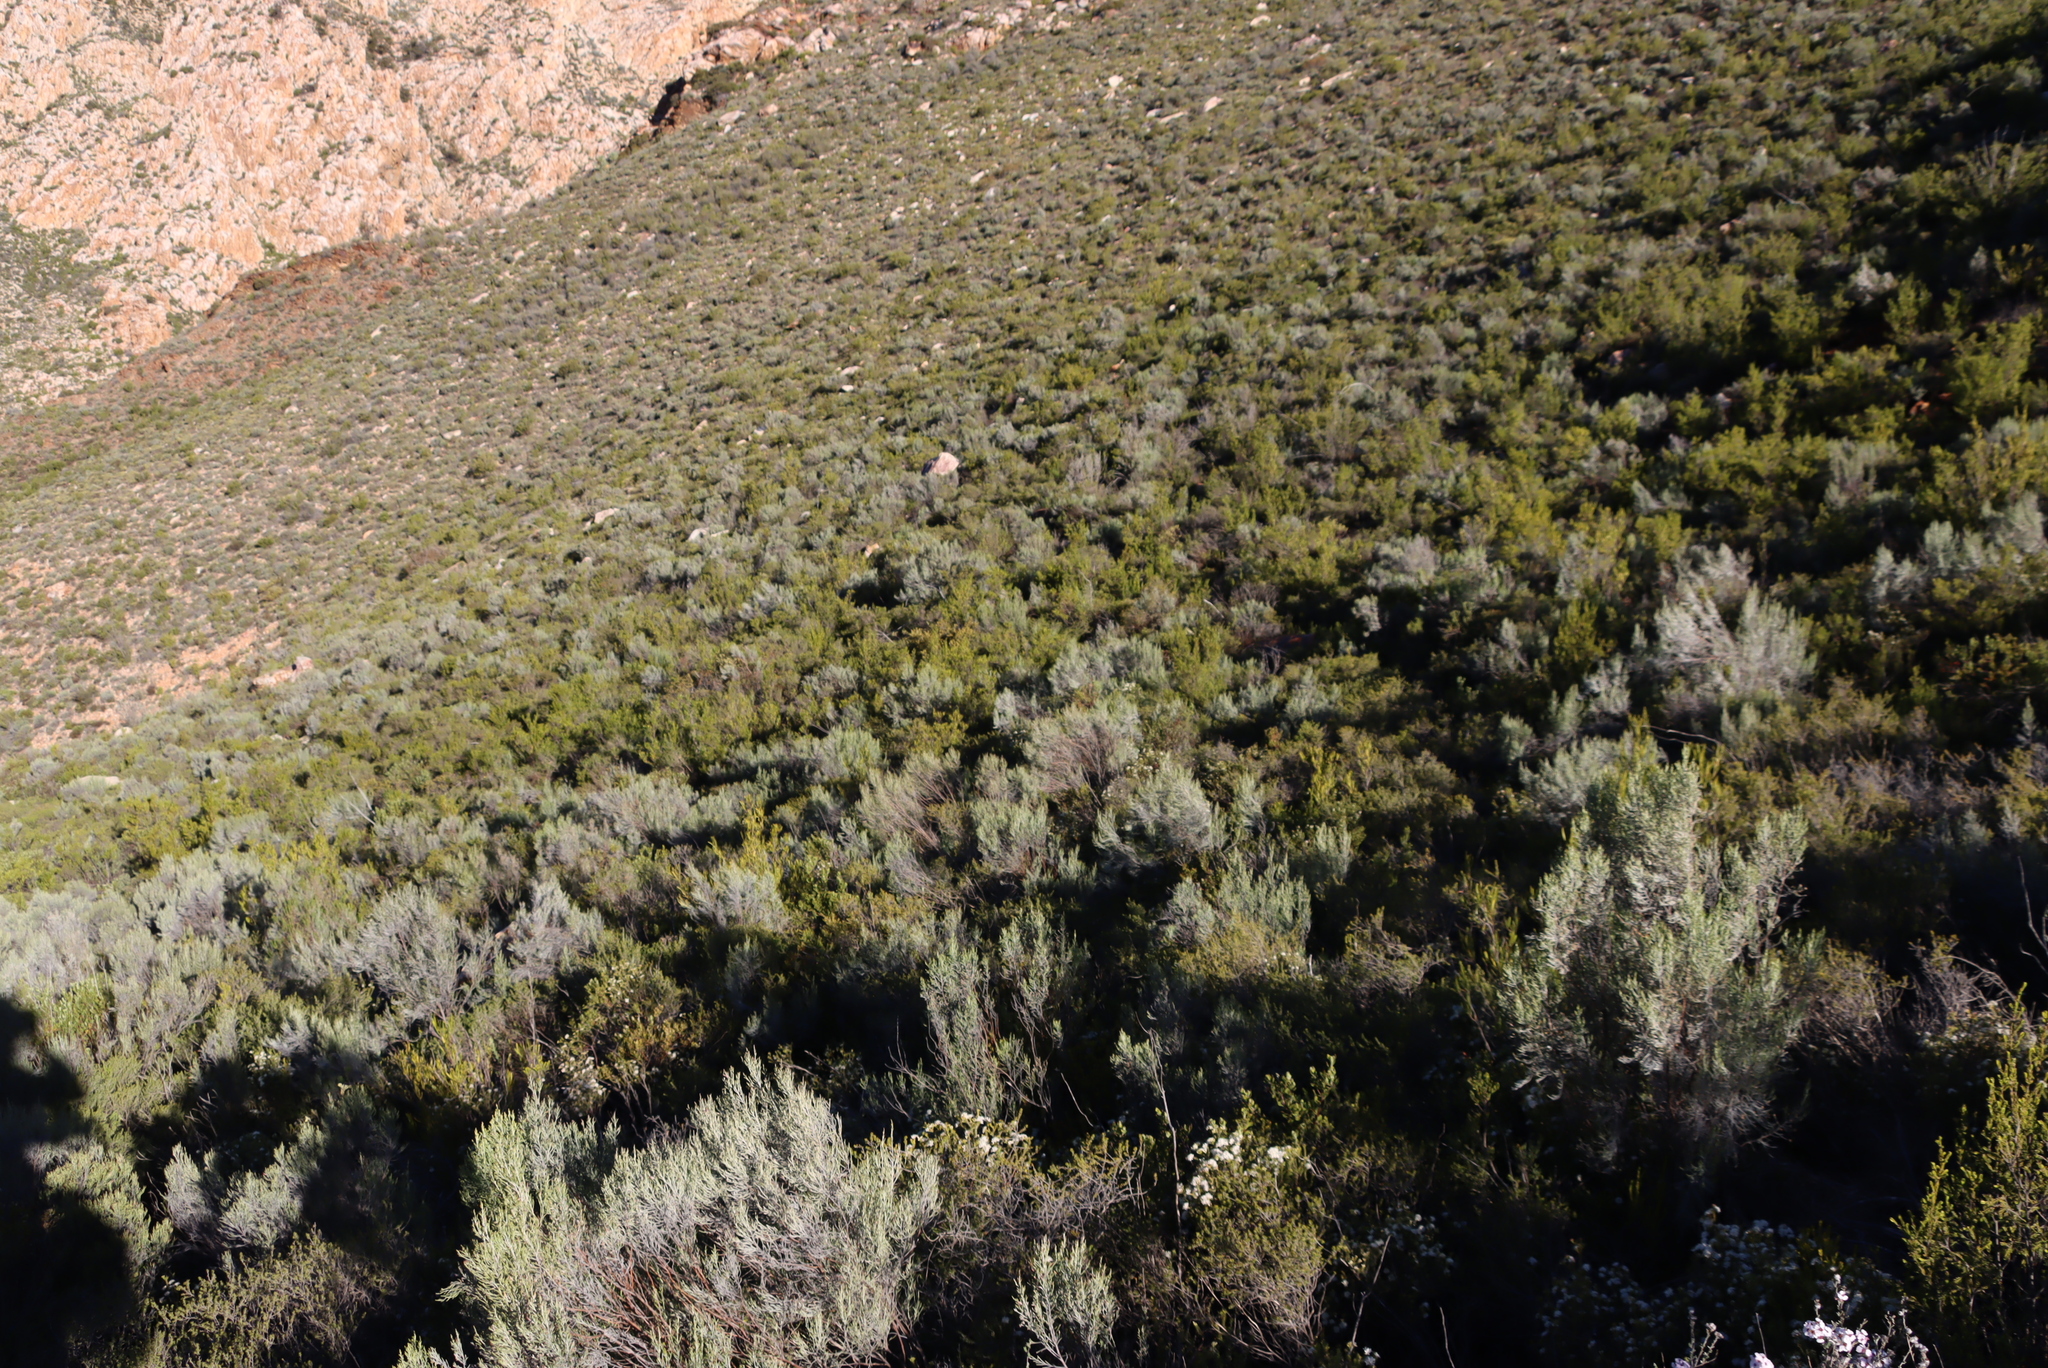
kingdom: Plantae
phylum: Tracheophyta
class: Magnoliopsida
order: Asterales
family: Asteraceae
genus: Dicerothamnus
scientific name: Dicerothamnus rhinocerotis
